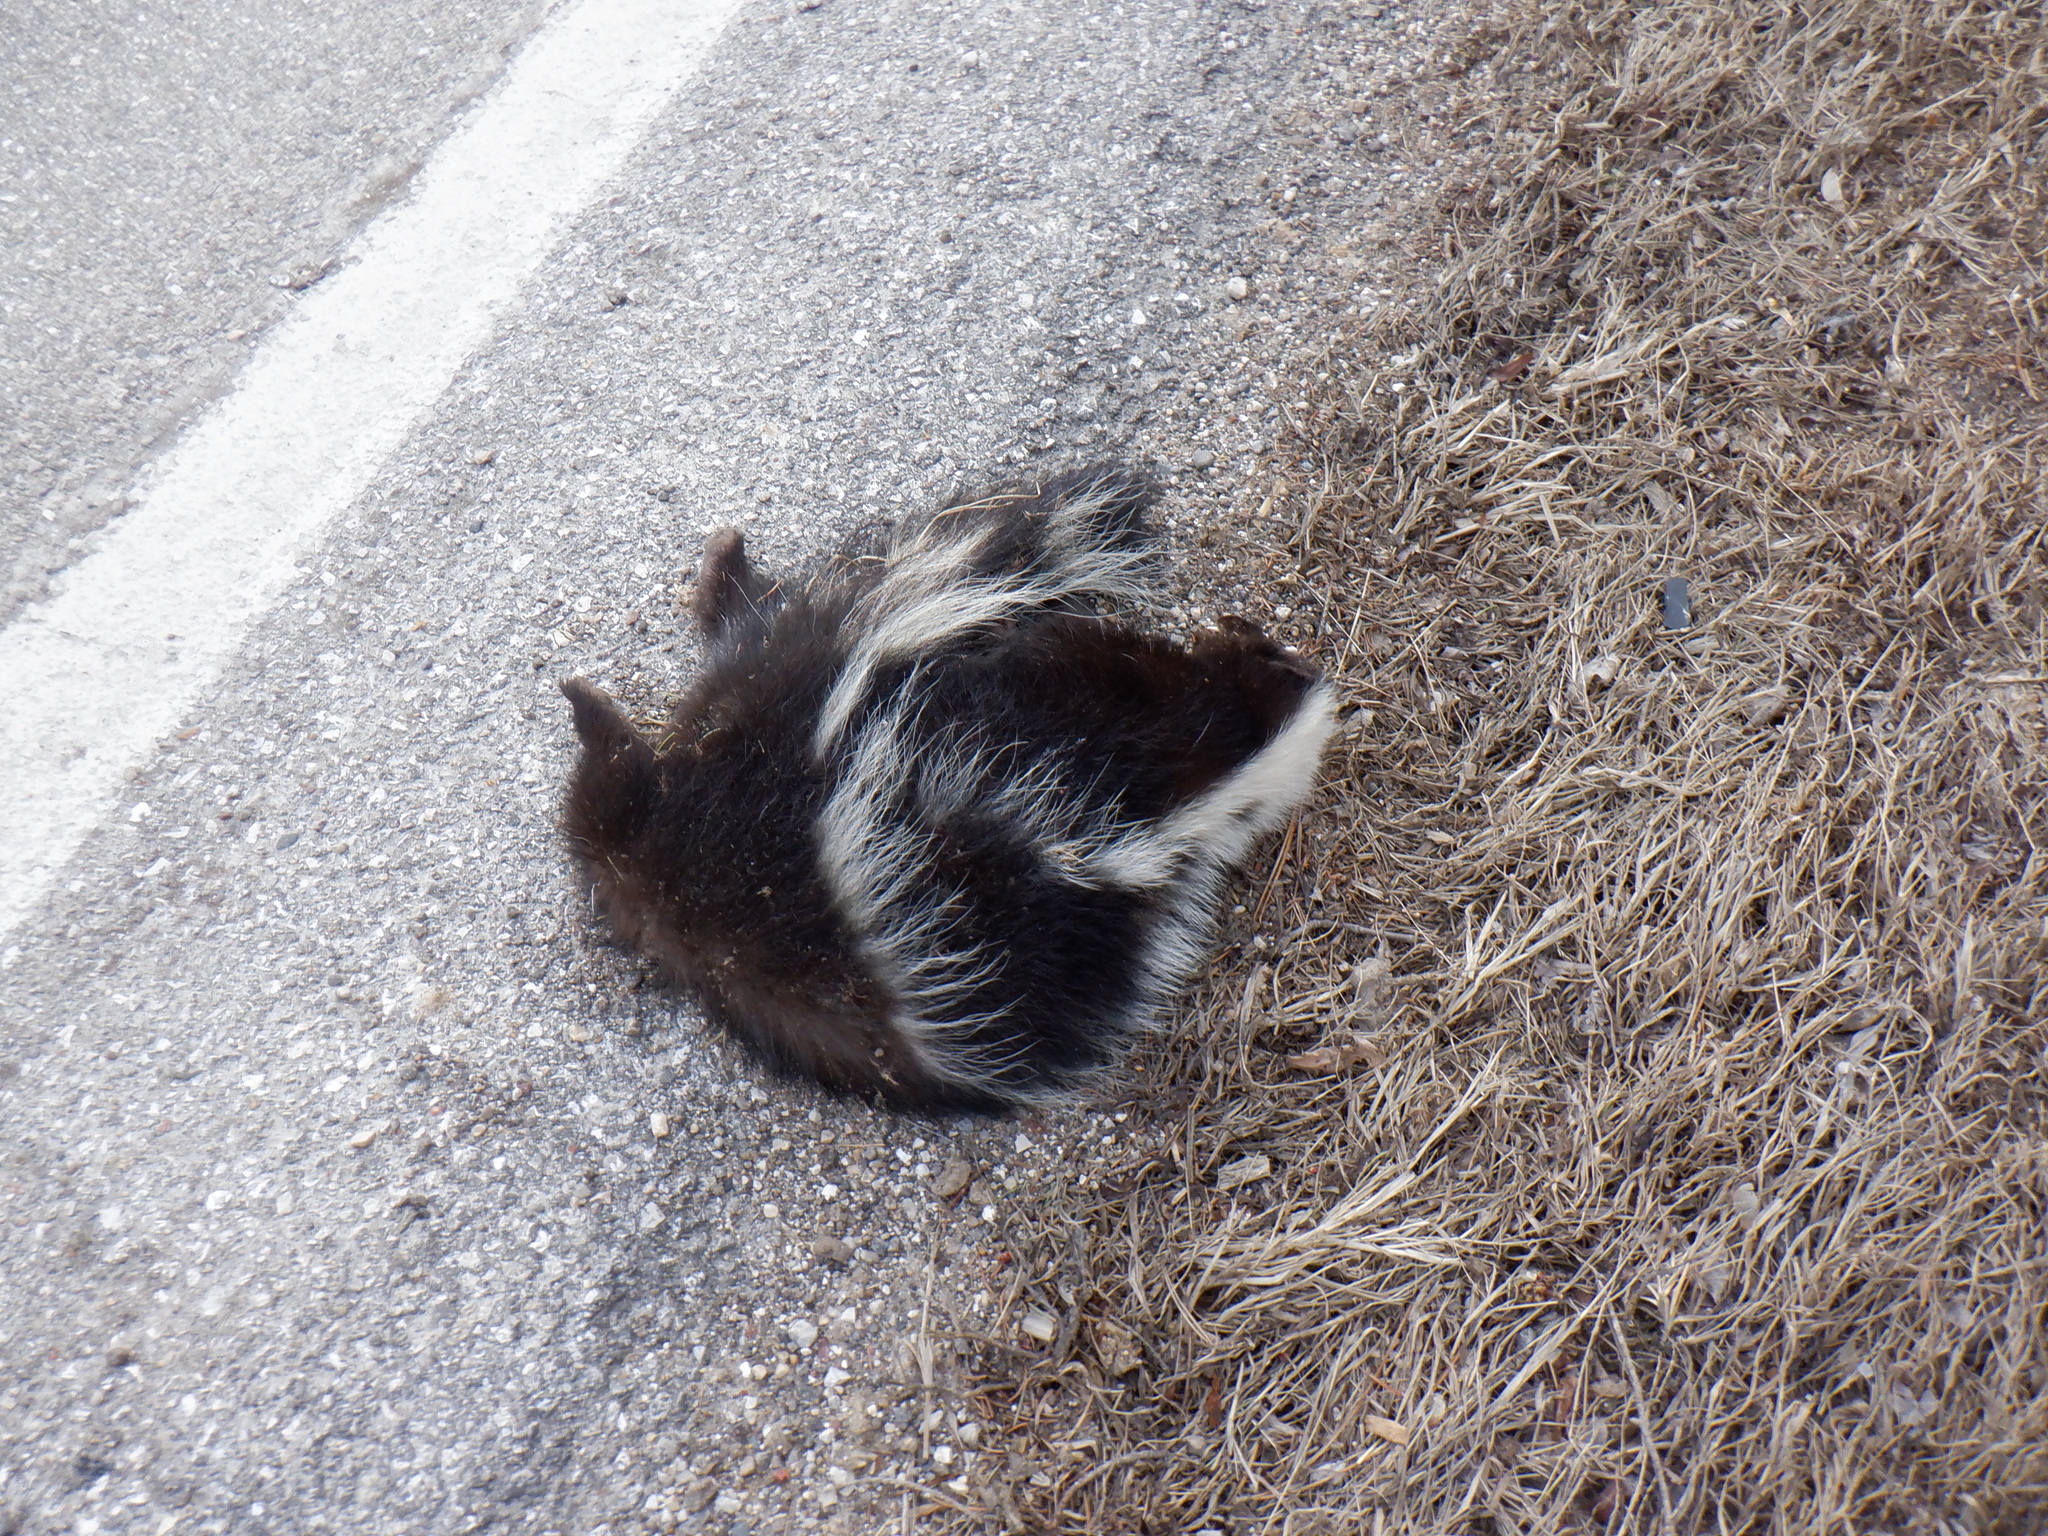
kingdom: Animalia
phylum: Chordata
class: Mammalia
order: Carnivora
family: Mephitidae
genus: Mephitis
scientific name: Mephitis mephitis
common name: Striped skunk
